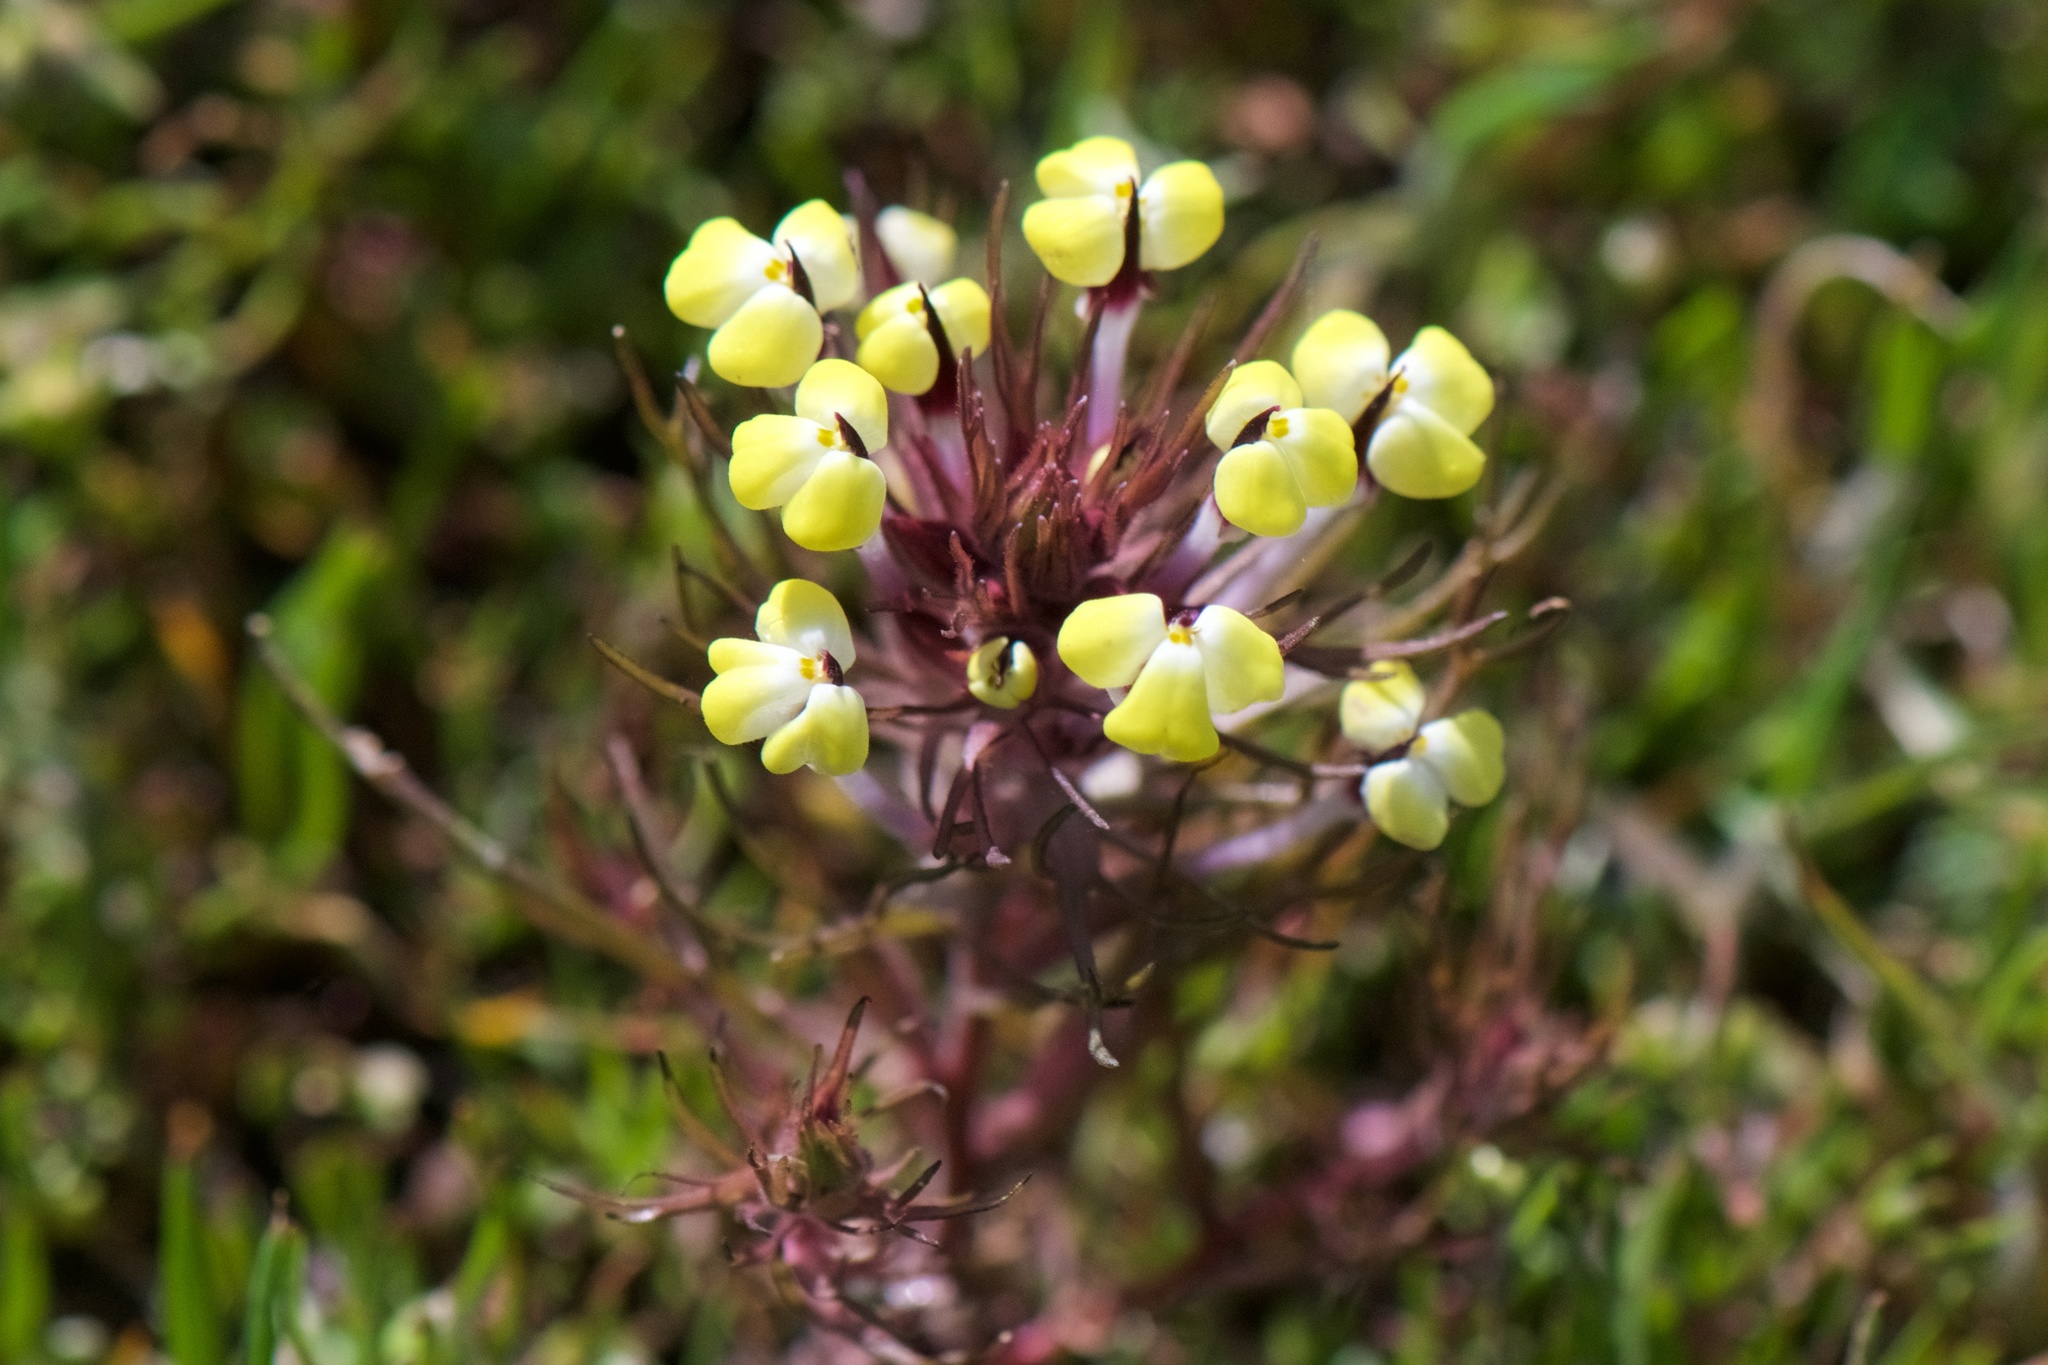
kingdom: Plantae
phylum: Tracheophyta
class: Magnoliopsida
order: Lamiales
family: Orobanchaceae
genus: Triphysaria
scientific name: Triphysaria eriantha
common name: Johnny-tuck
